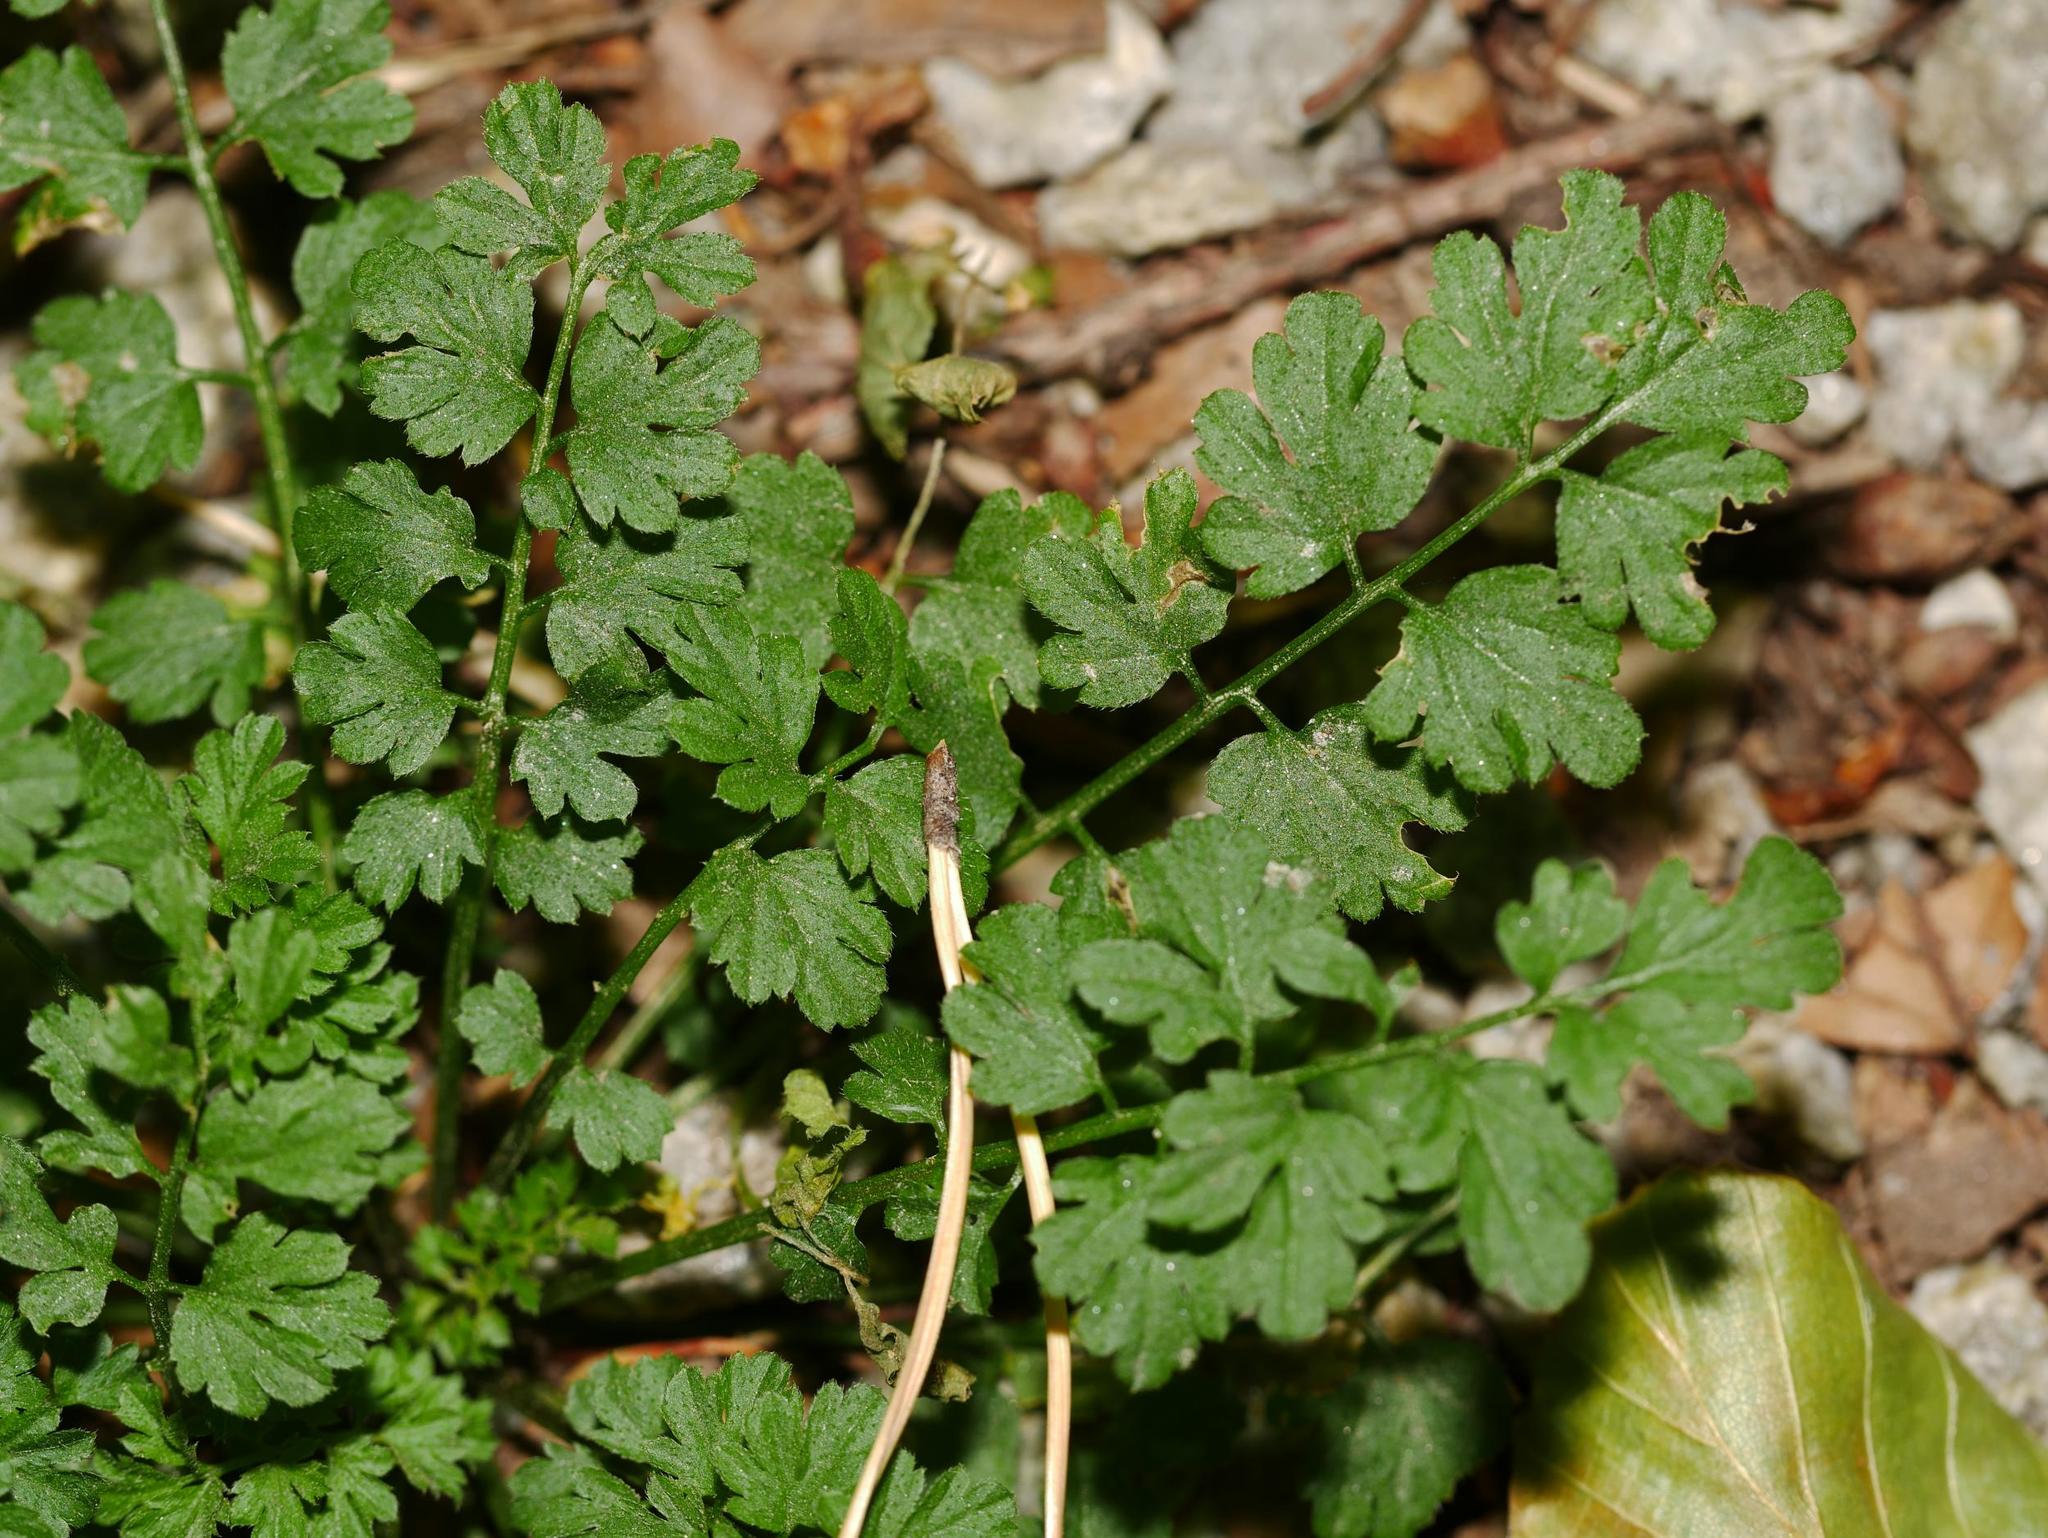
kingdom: Plantae
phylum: Tracheophyta
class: Magnoliopsida
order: Brassicales
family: Brassicaceae
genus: Cardamine
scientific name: Cardamine impatiens
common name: Narrow-leaved bitter-cress
